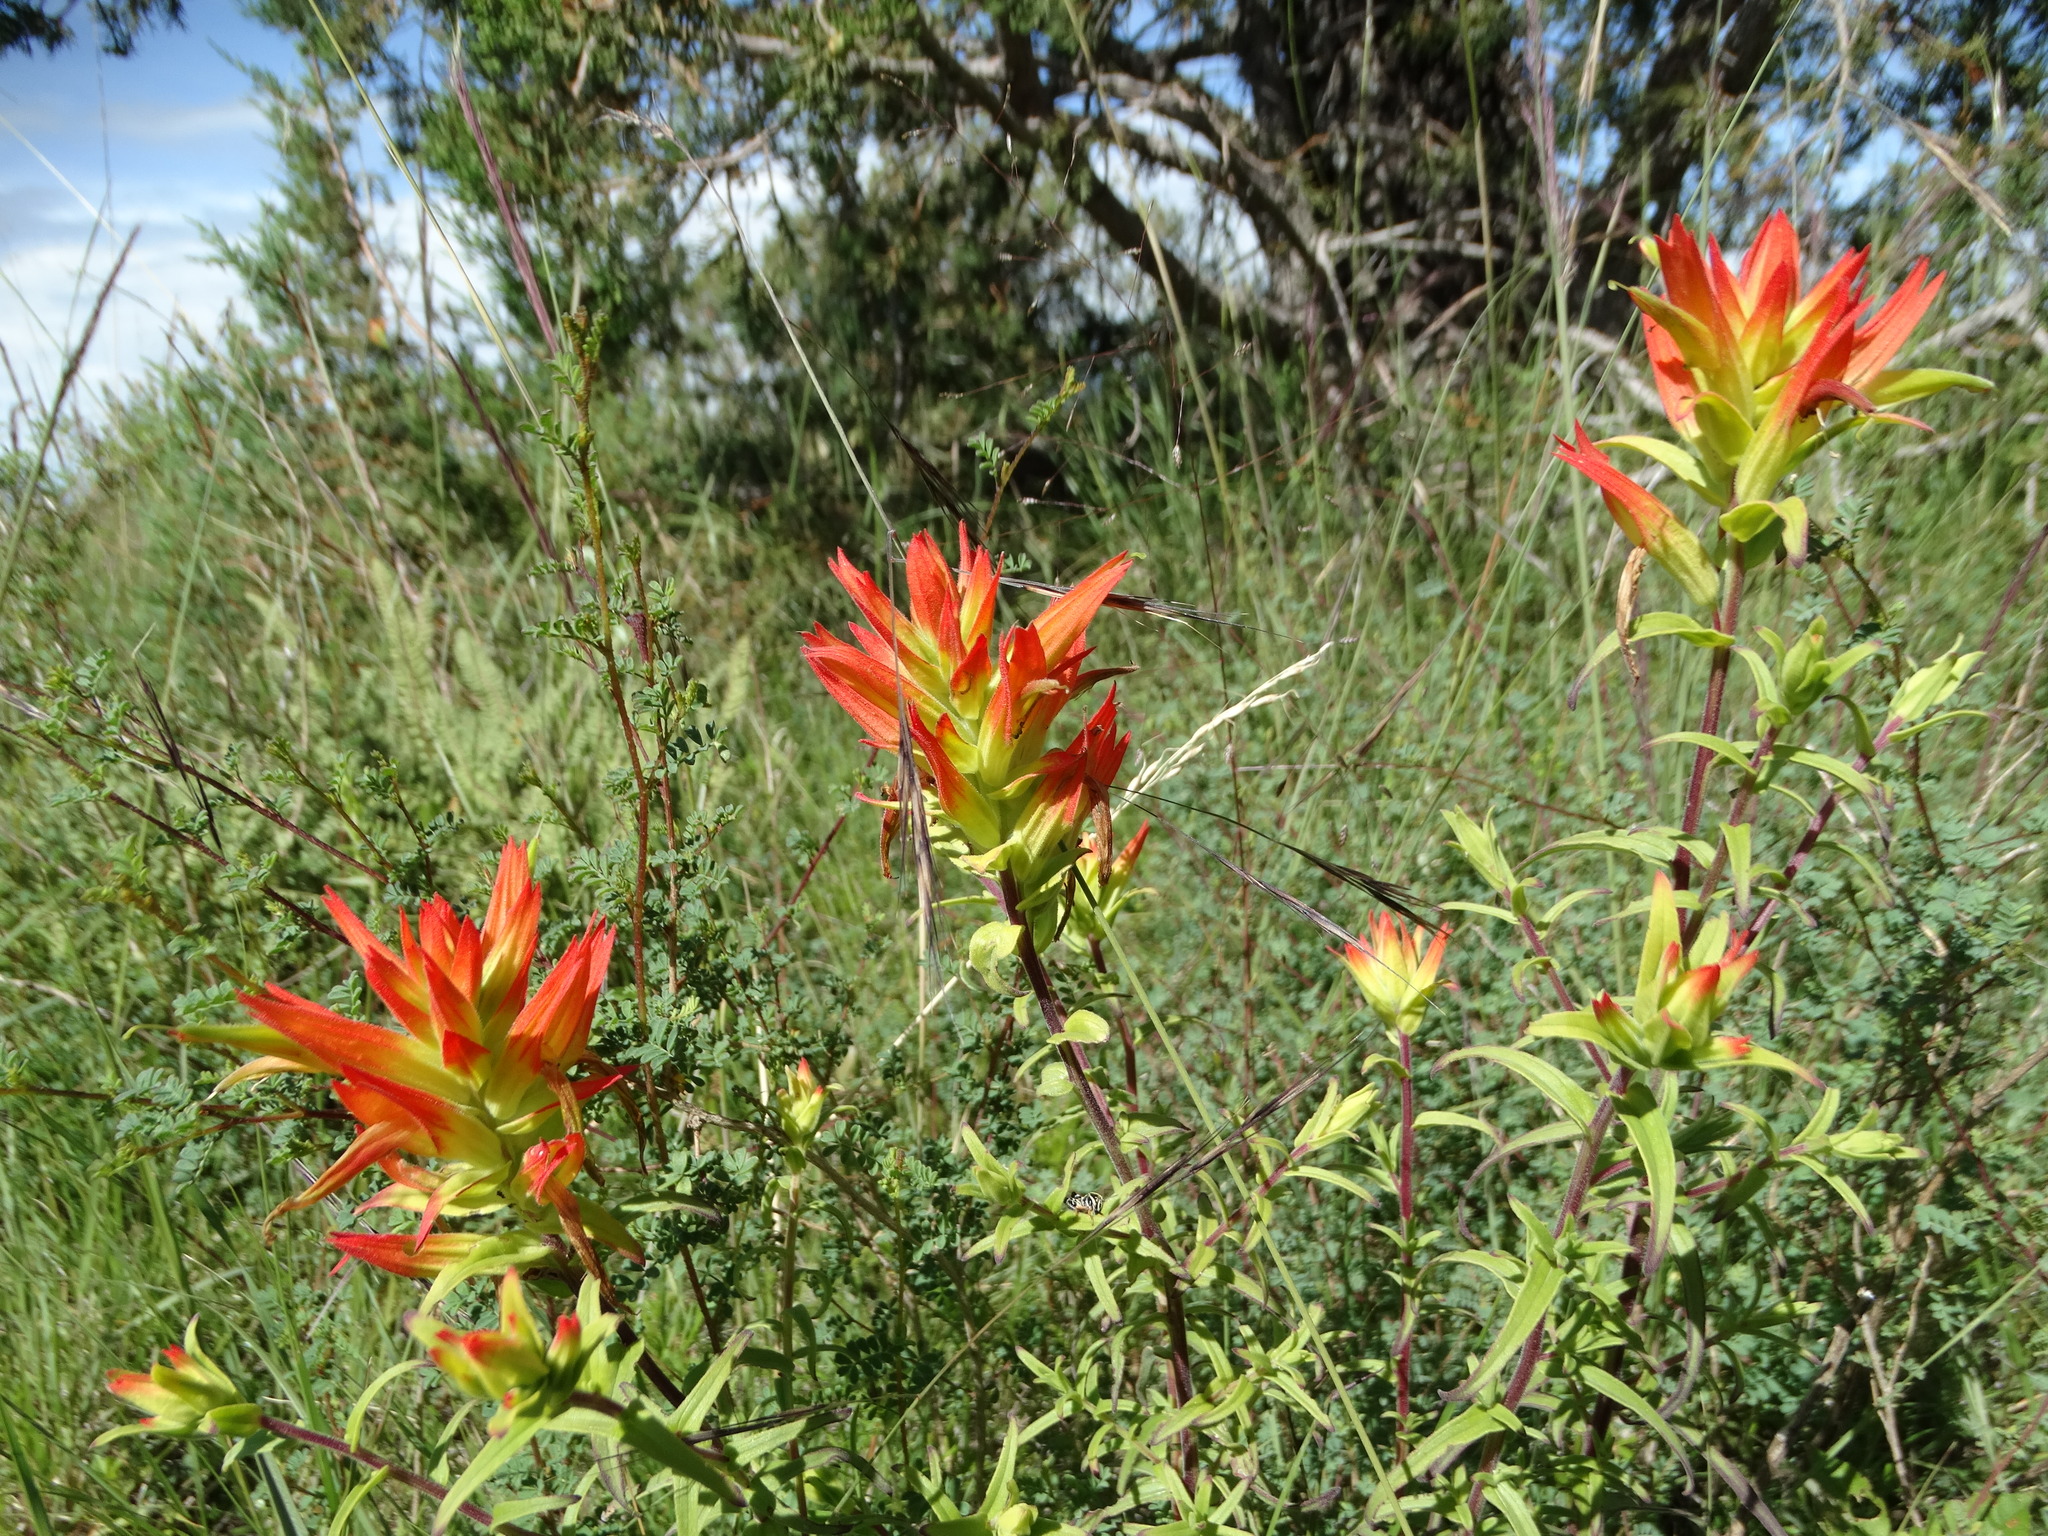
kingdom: Plantae
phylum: Tracheophyta
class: Magnoliopsida
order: Lamiales
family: Orobanchaceae
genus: Castilleja
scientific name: Castilleja tenuiflora
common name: Santa catalina indian paintbrush
